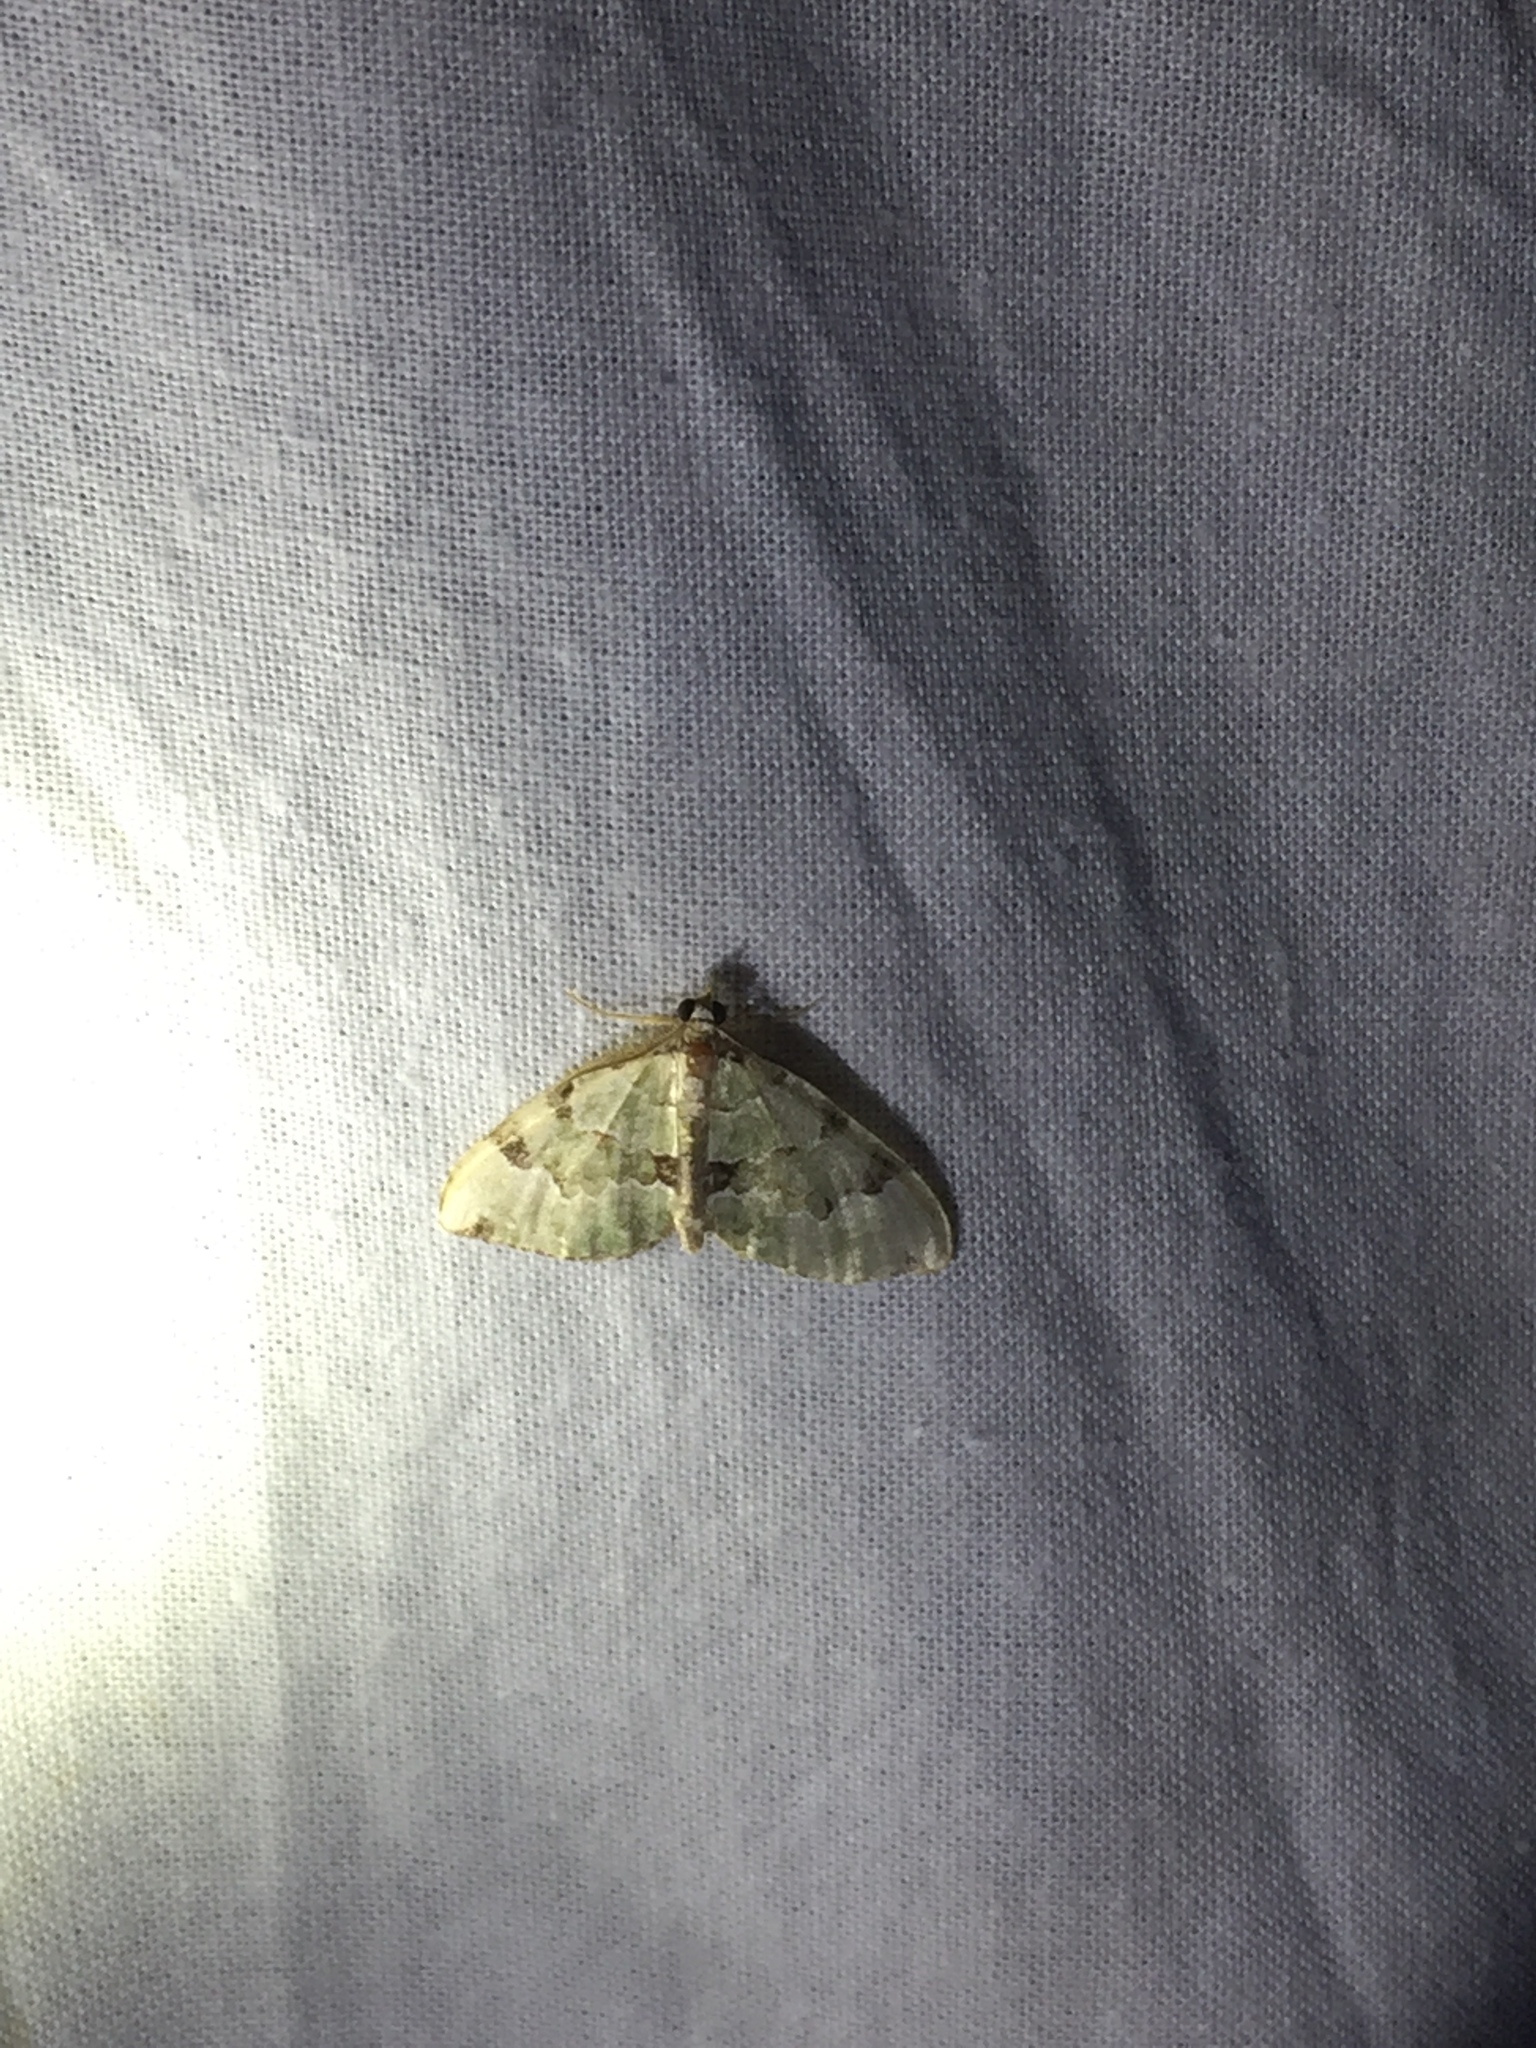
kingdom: Animalia
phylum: Arthropoda
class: Insecta
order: Lepidoptera
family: Geometridae
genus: Colostygia
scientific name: Colostygia pectinataria
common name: Green carpet
